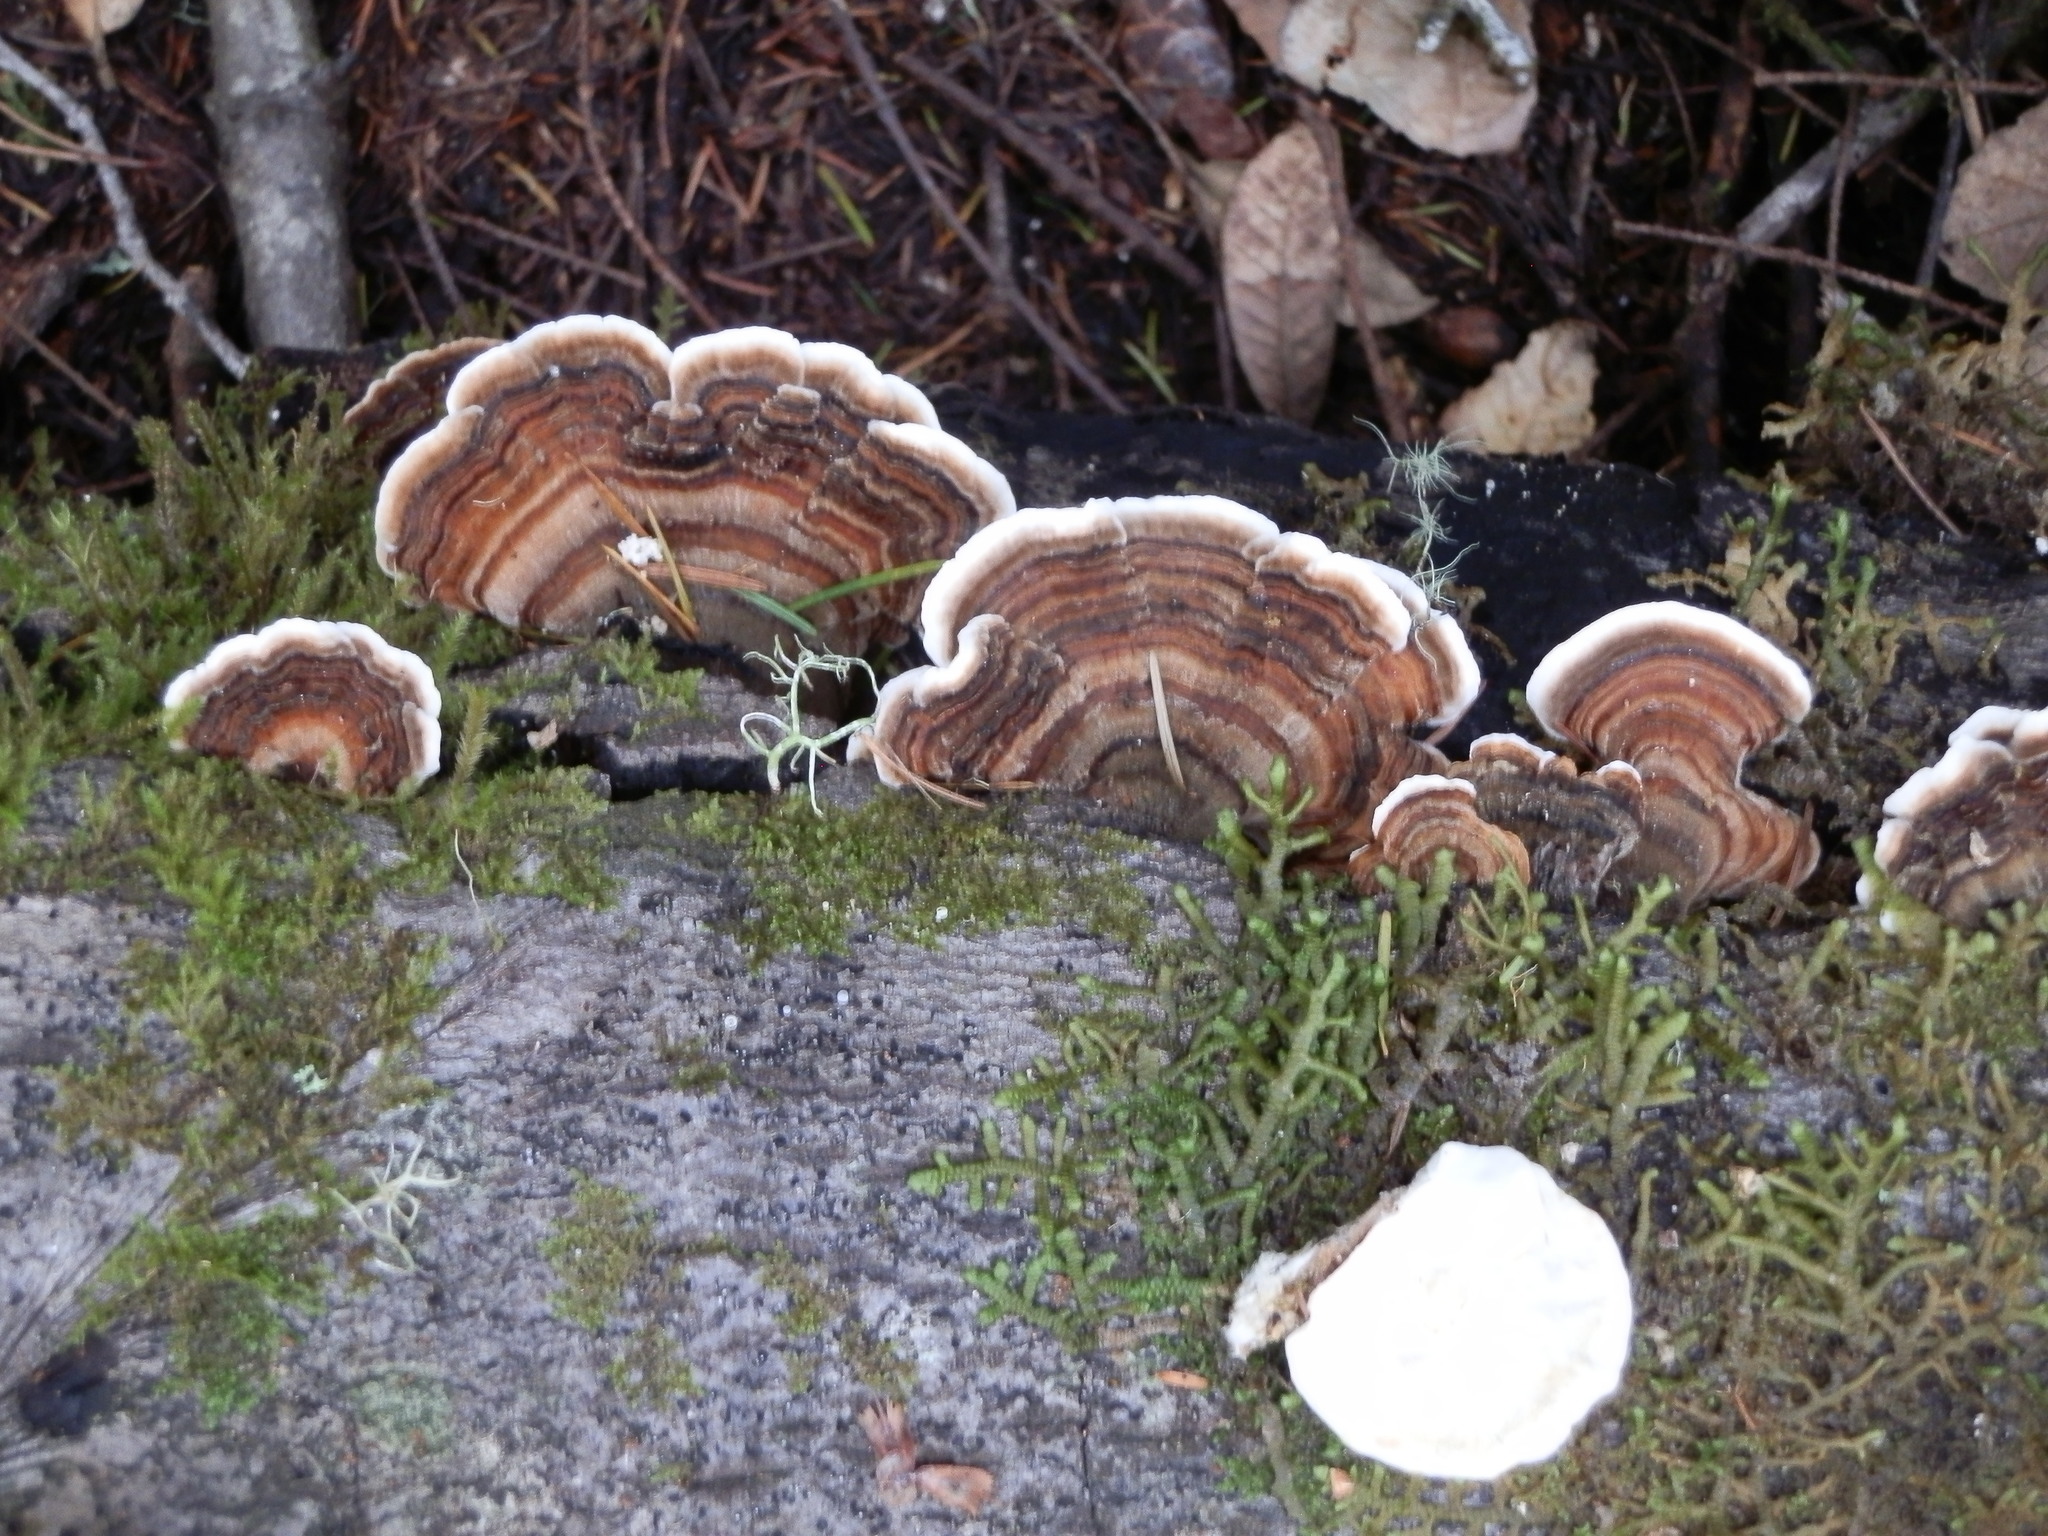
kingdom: Fungi
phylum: Basidiomycota
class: Agaricomycetes
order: Polyporales
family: Polyporaceae
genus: Trametes
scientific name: Trametes versicolor
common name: Turkeytail
